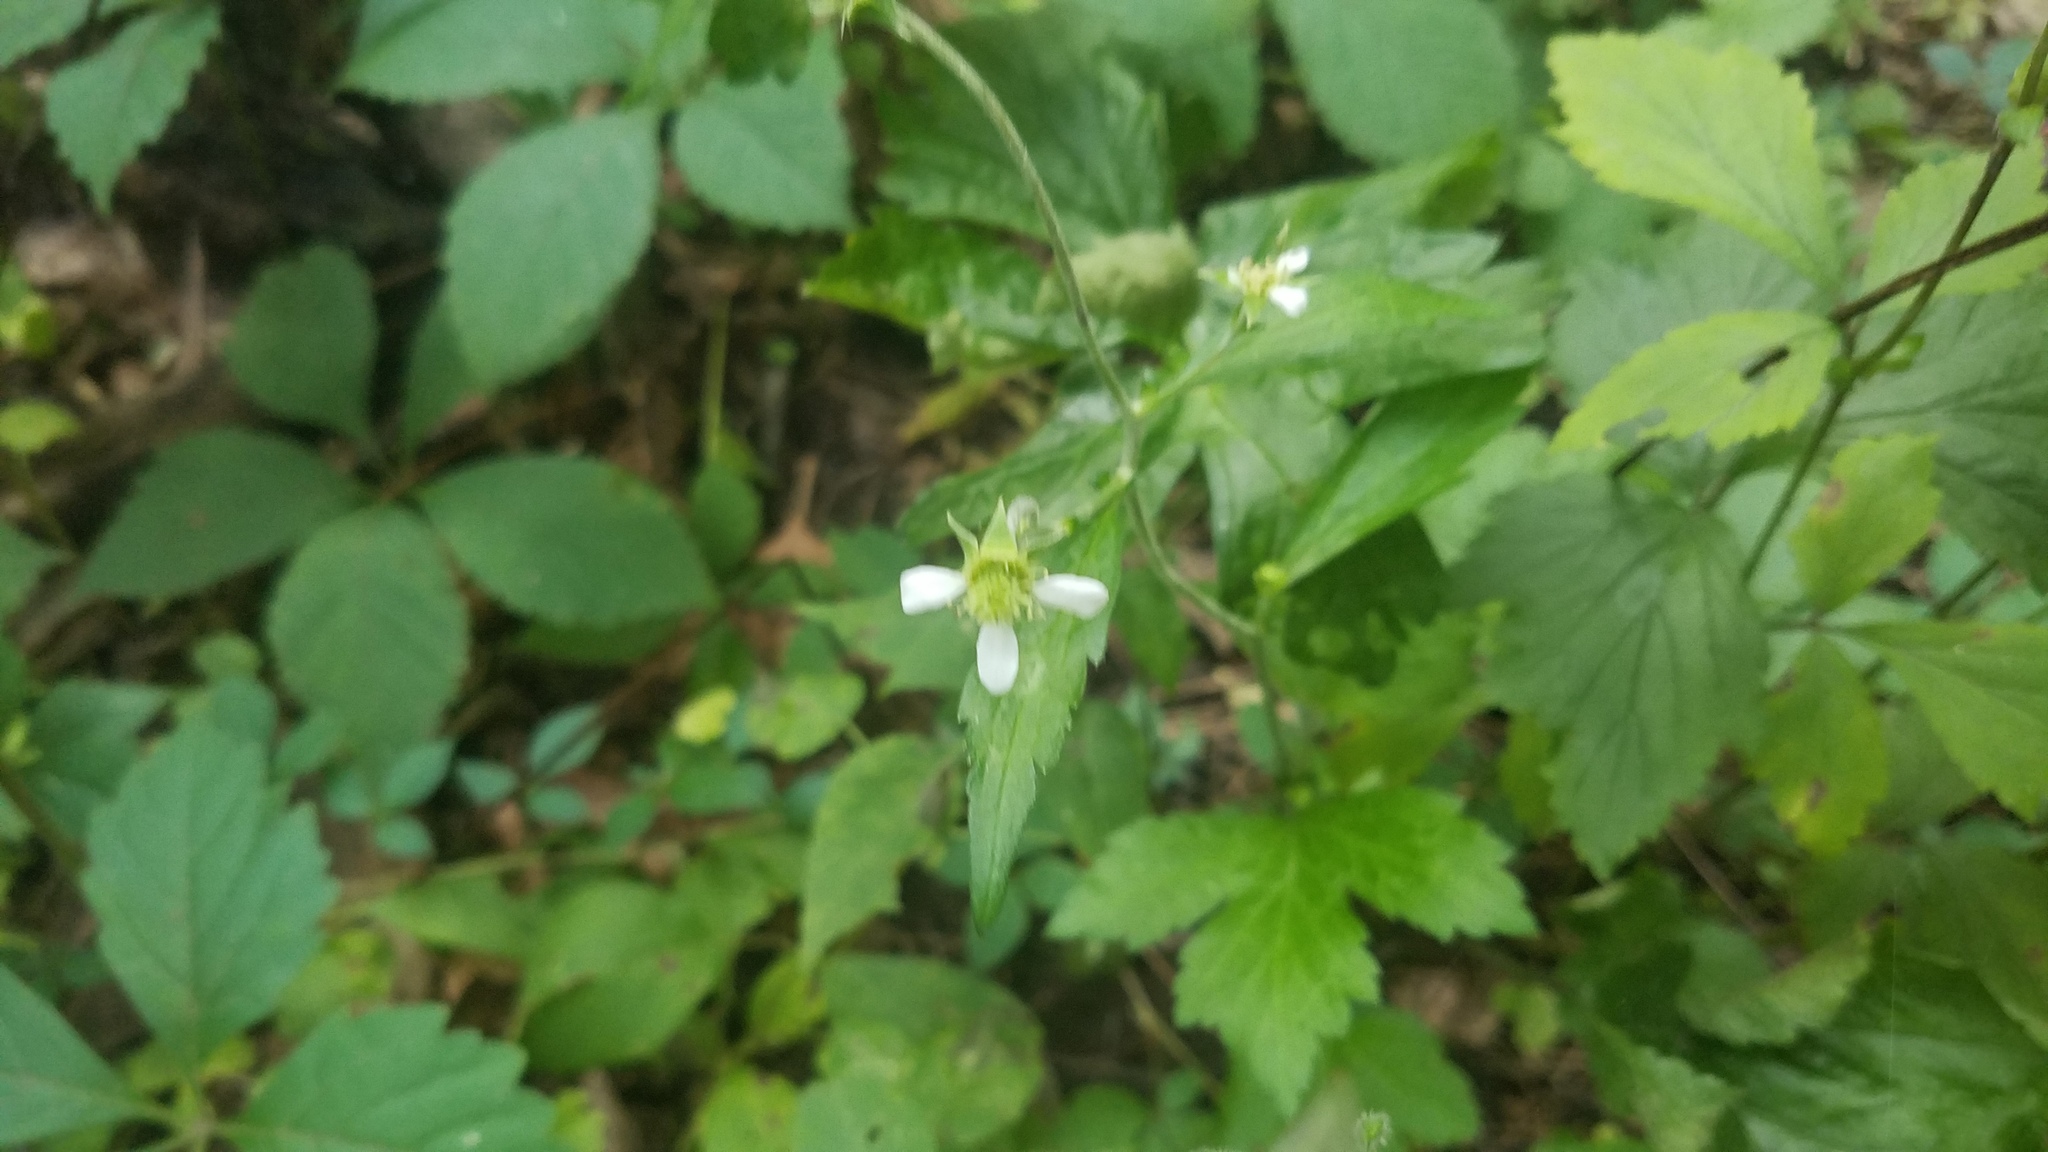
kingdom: Plantae
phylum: Tracheophyta
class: Magnoliopsida
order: Rosales
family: Rosaceae
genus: Geum
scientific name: Geum canadense
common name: White avens
